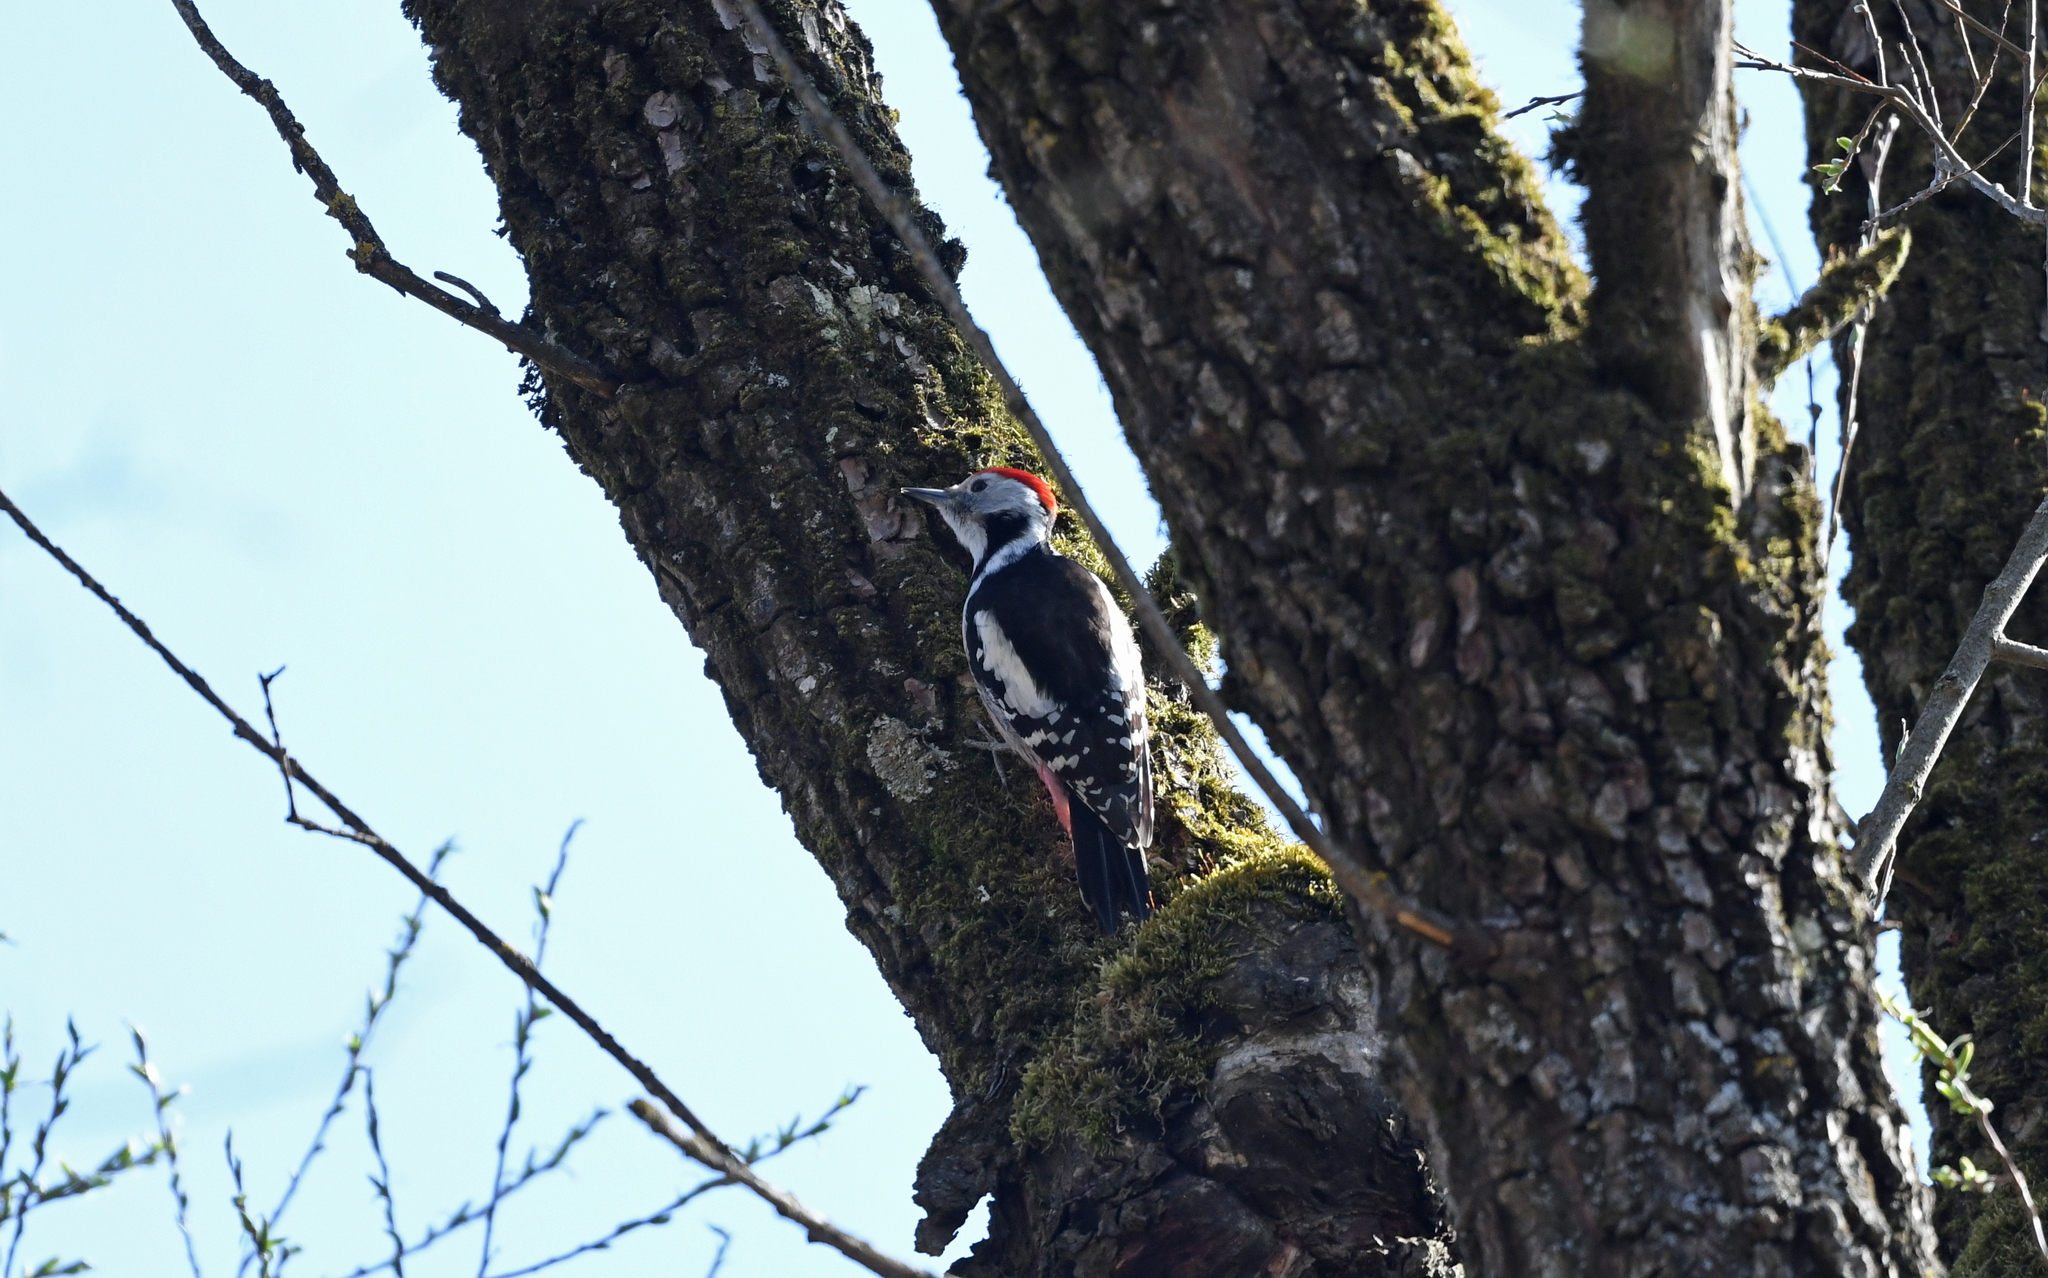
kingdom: Animalia
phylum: Chordata
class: Aves
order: Piciformes
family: Picidae
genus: Dendrocoptes
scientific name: Dendrocoptes medius
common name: Middle spotted woodpecker
